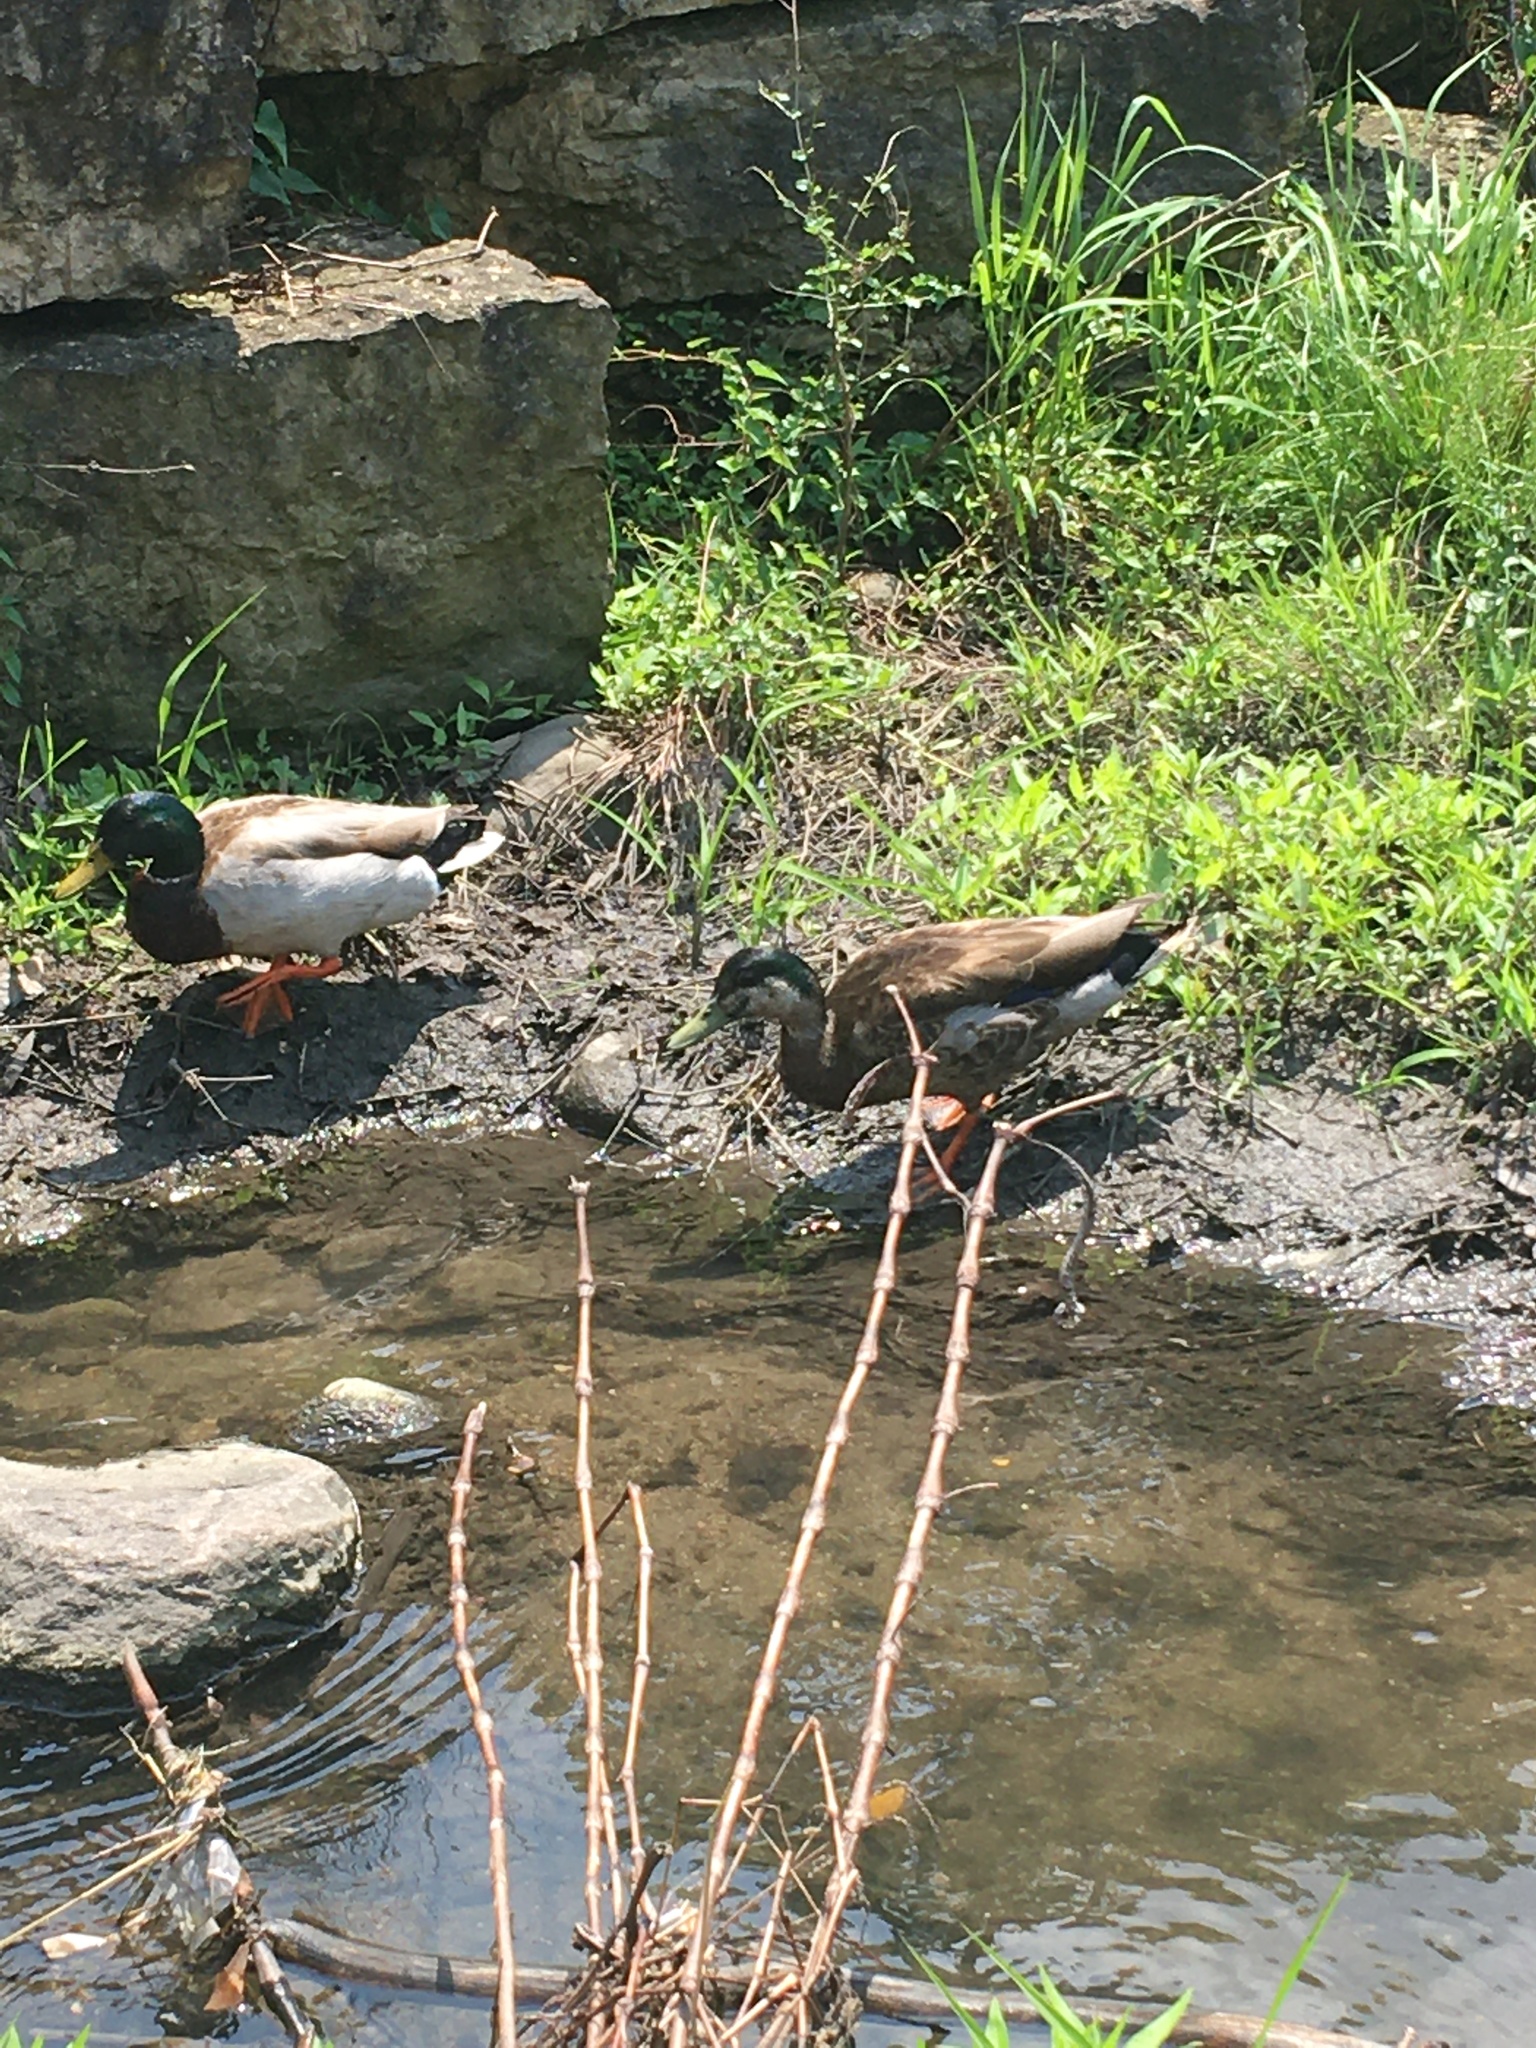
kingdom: Animalia
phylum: Chordata
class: Aves
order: Anseriformes
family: Anatidae
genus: Anas
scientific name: Anas platyrhynchos
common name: Mallard
